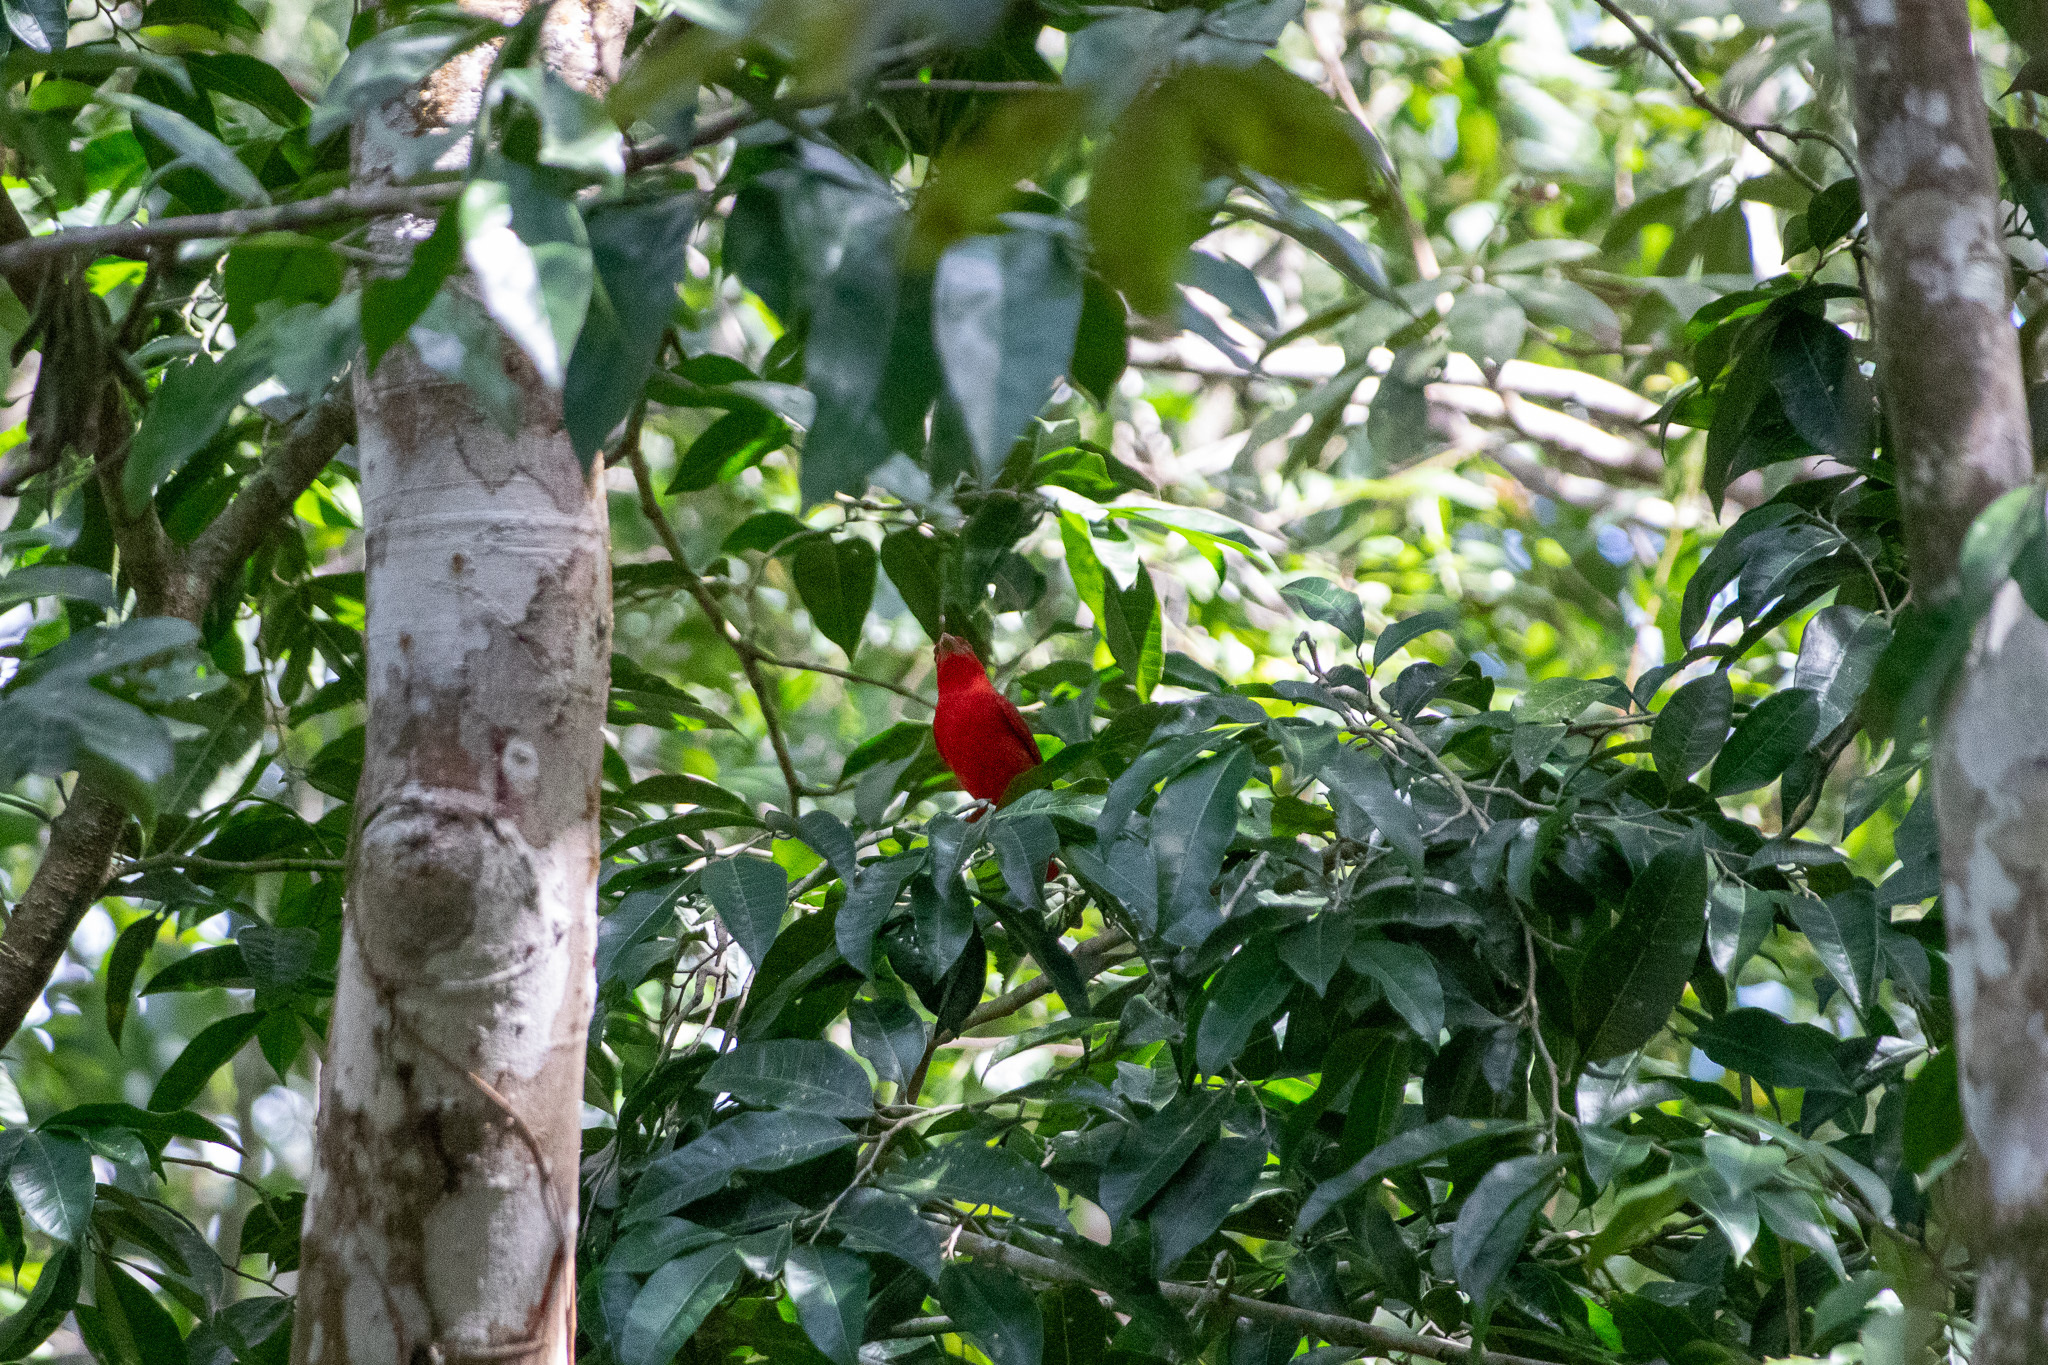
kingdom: Animalia
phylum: Chordata
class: Aves
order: Passeriformes
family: Cardinalidae
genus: Piranga
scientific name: Piranga rubra
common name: Summer tanager
